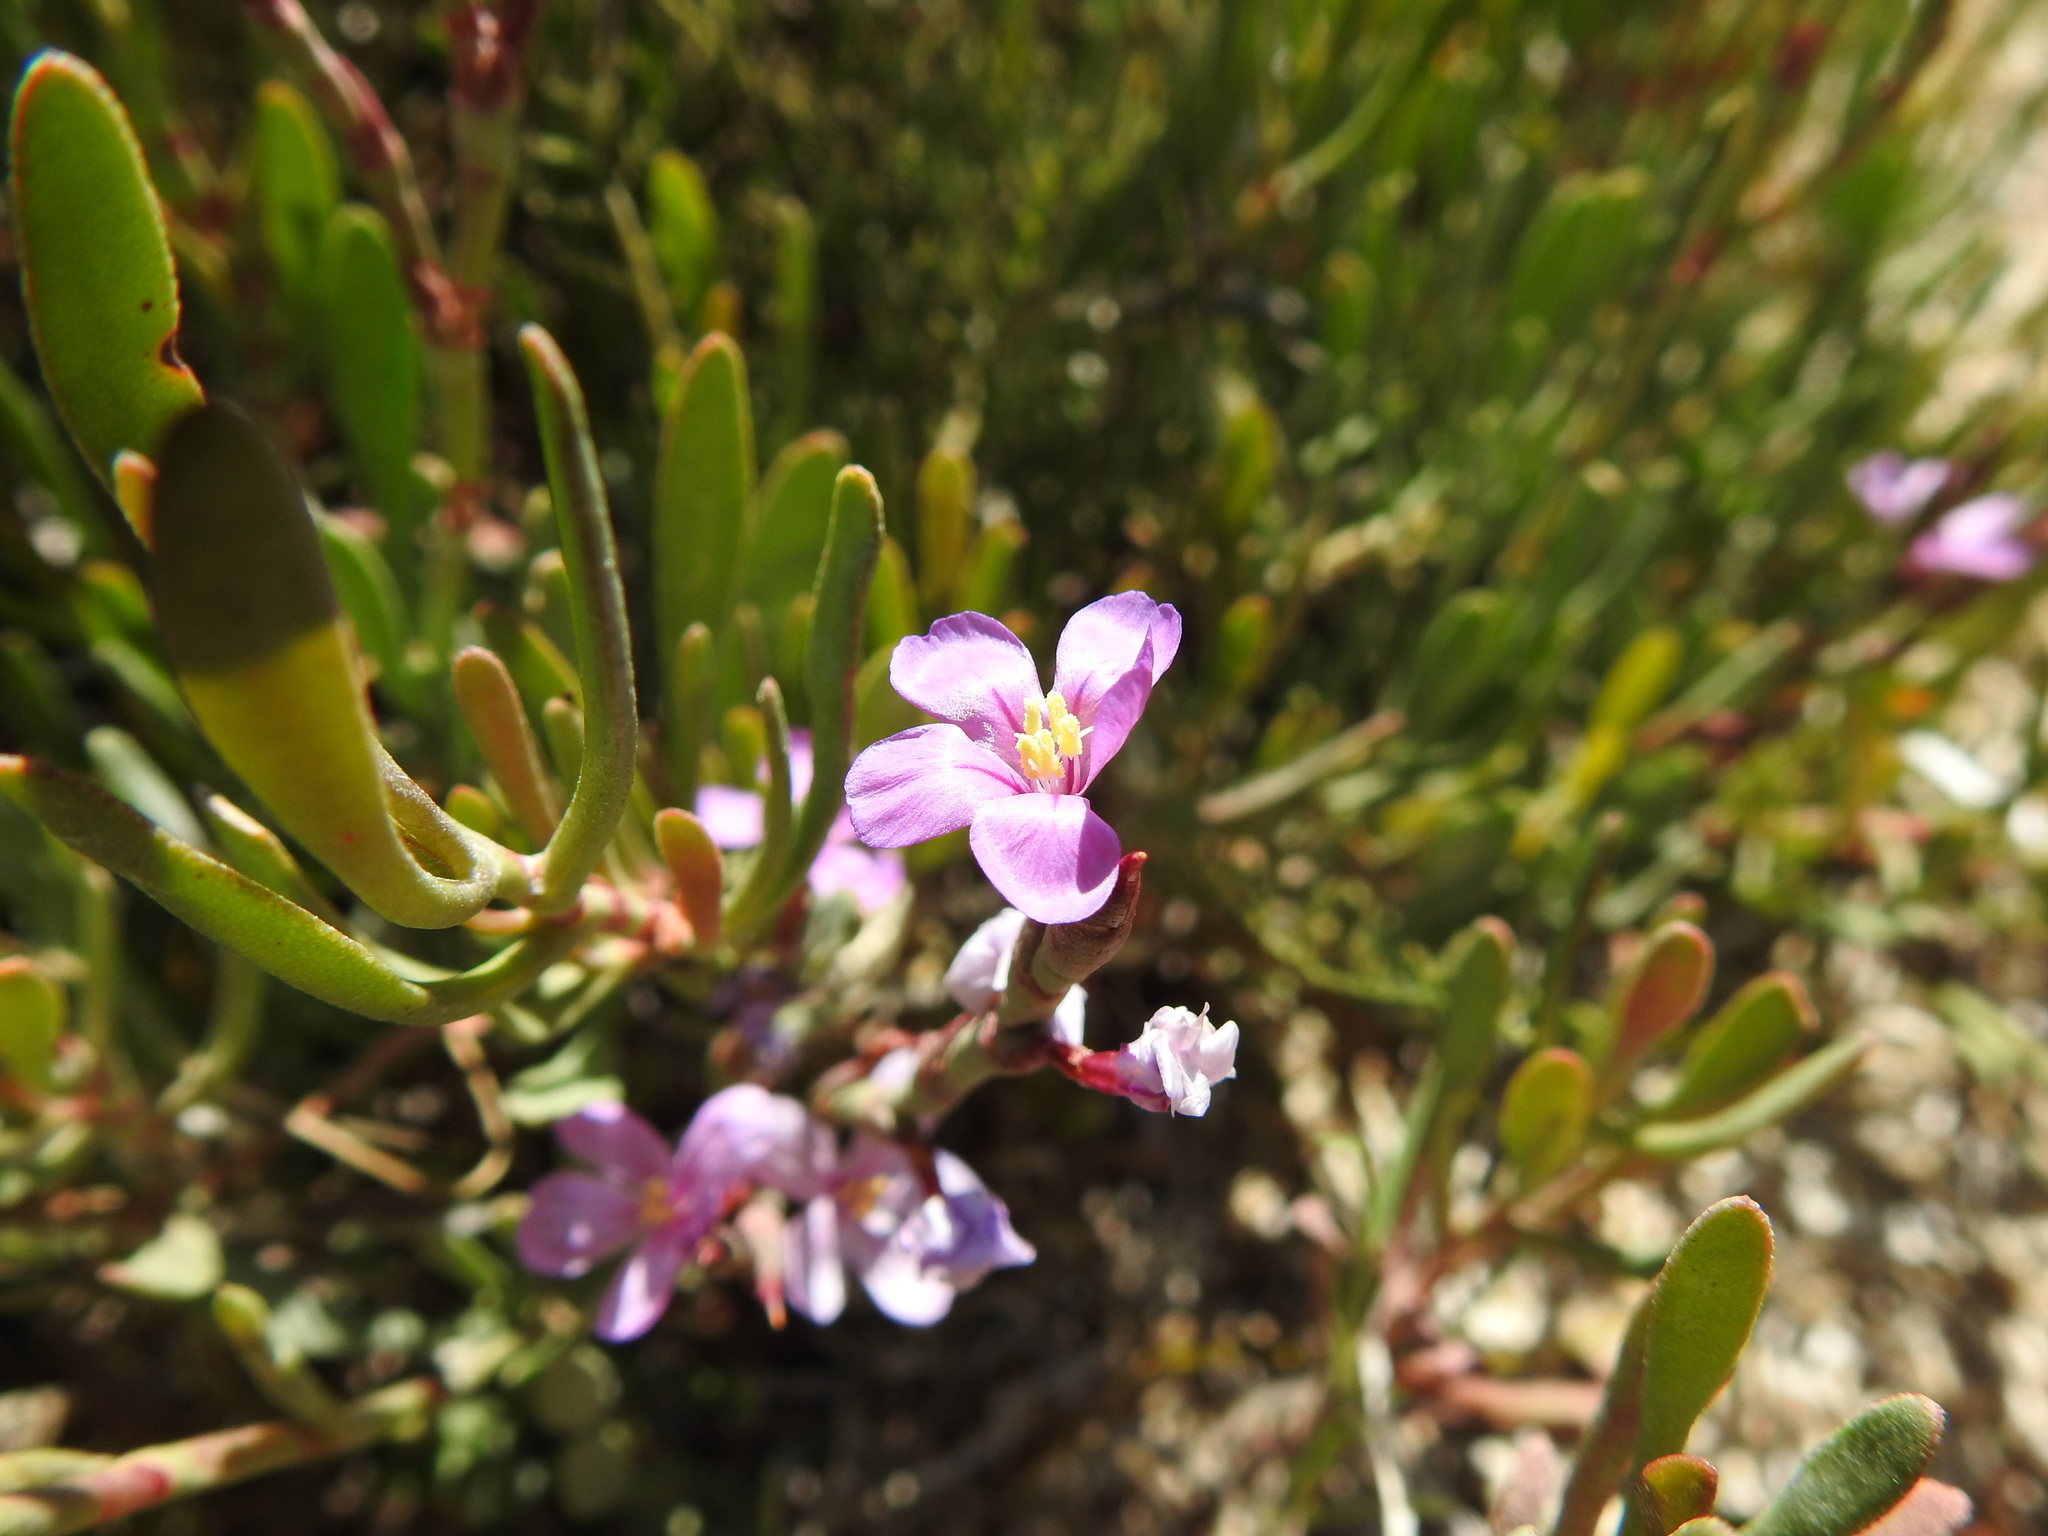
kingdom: Plantae
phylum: Tracheophyta
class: Magnoliopsida
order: Caryophyllales
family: Plumbaginaceae
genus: Limoniastrum
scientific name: Limoniastrum monopetalum
